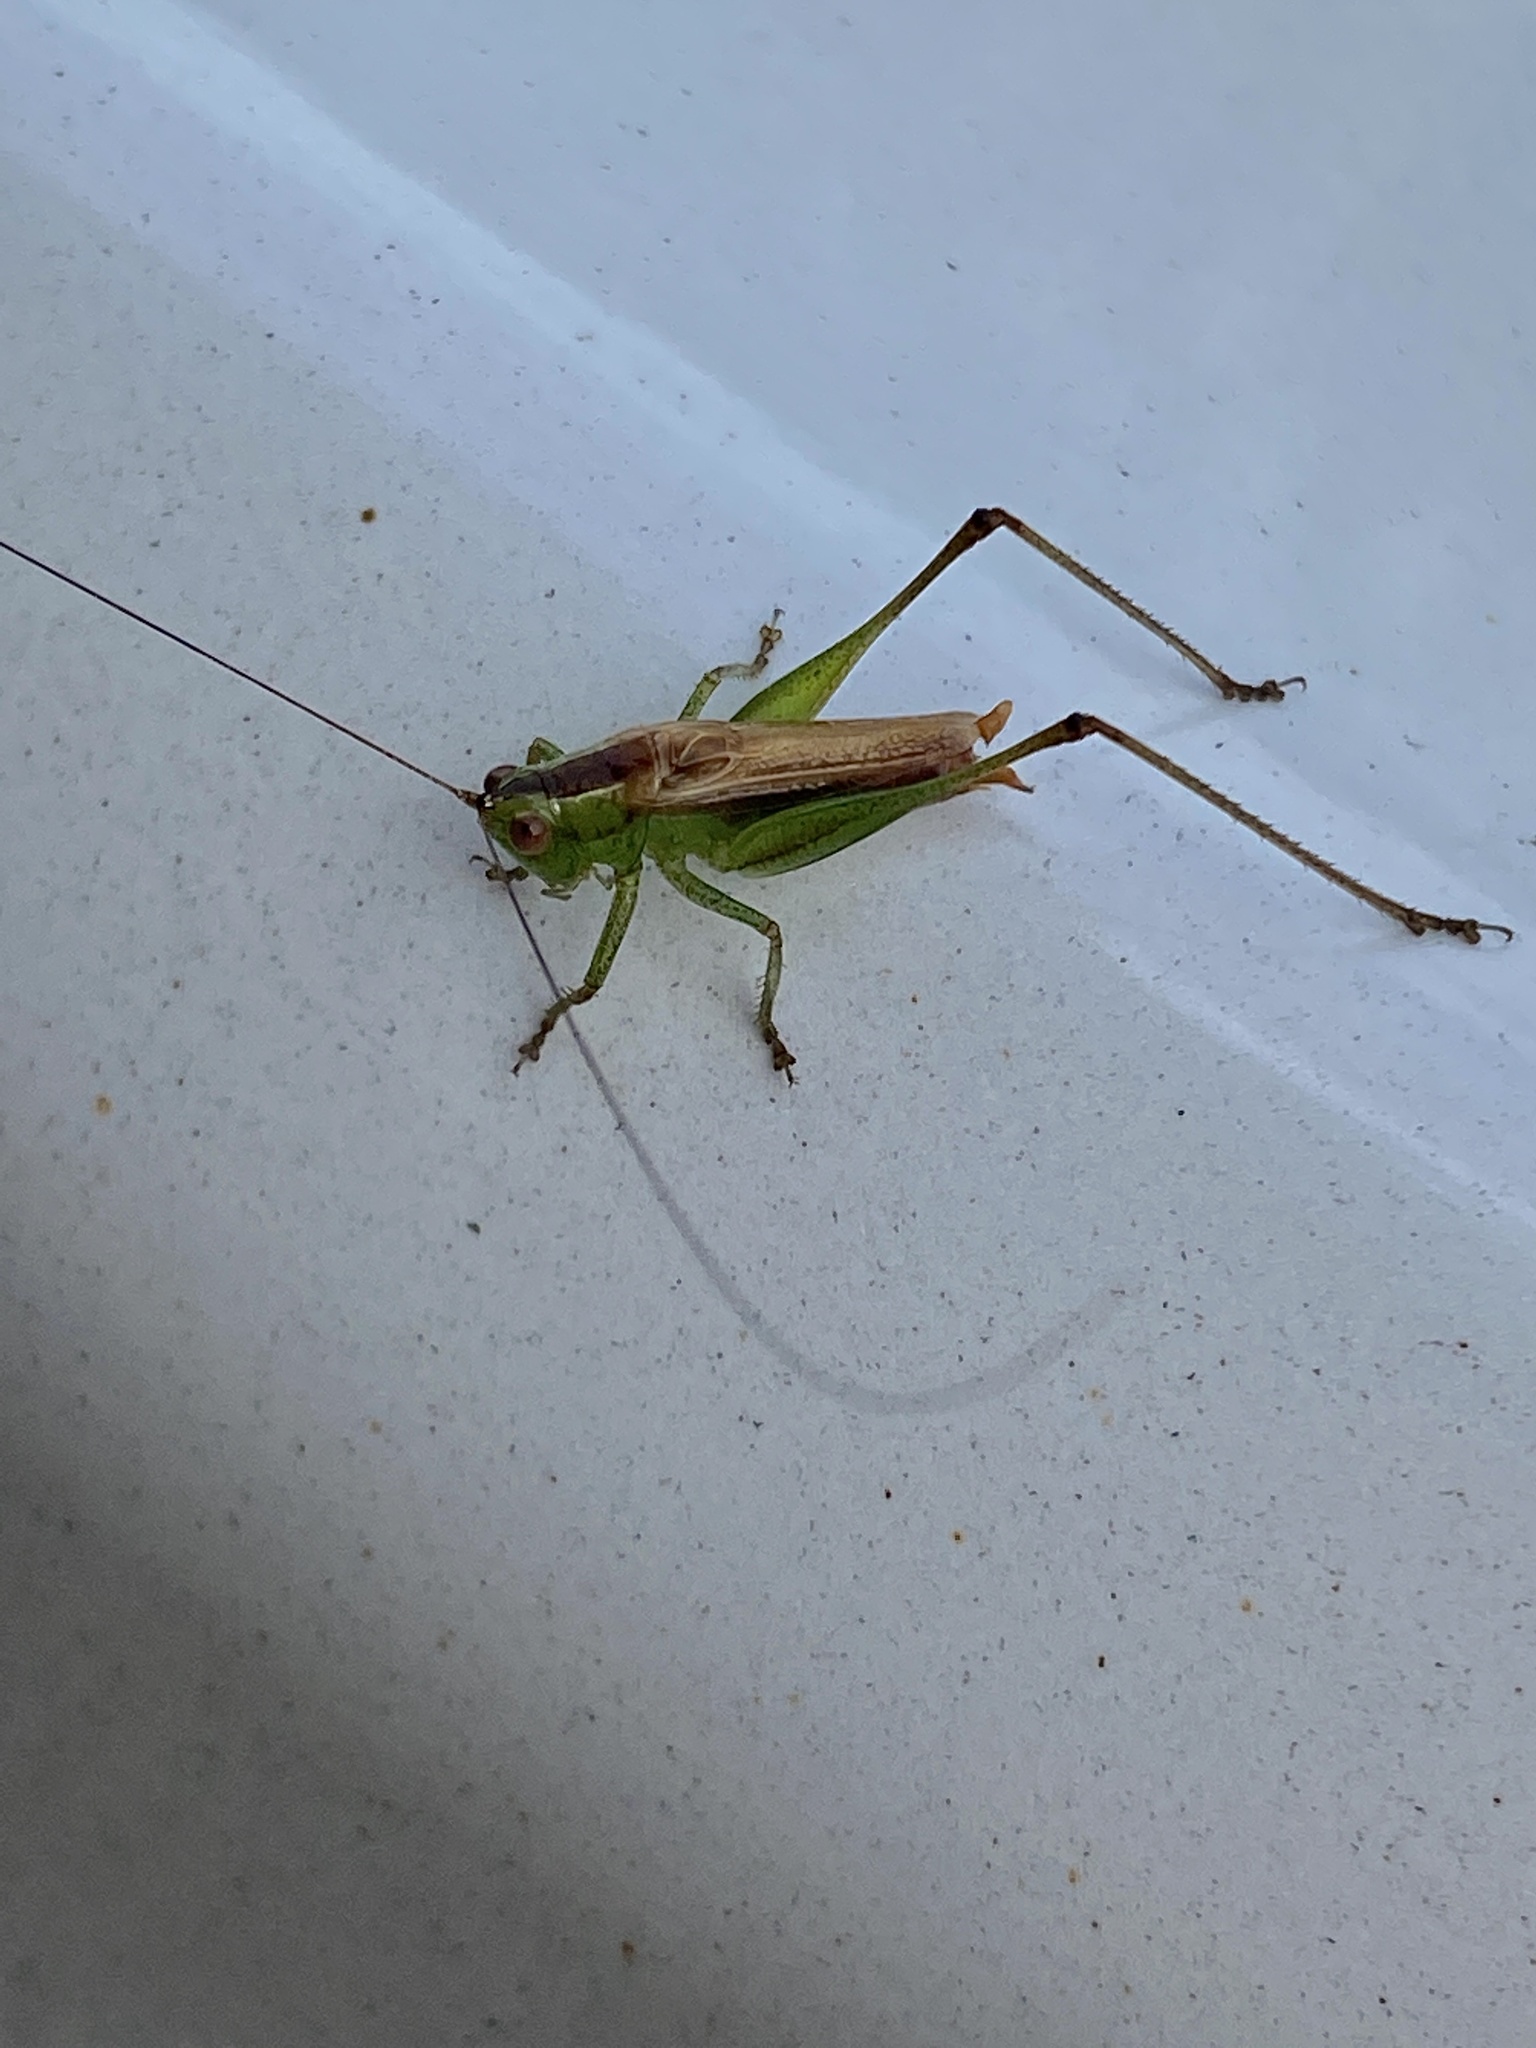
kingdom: Animalia
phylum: Arthropoda
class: Insecta
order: Orthoptera
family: Tettigoniidae
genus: Conocephalus
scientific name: Conocephalus brevipennis
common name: Short-winged meadow katydid
